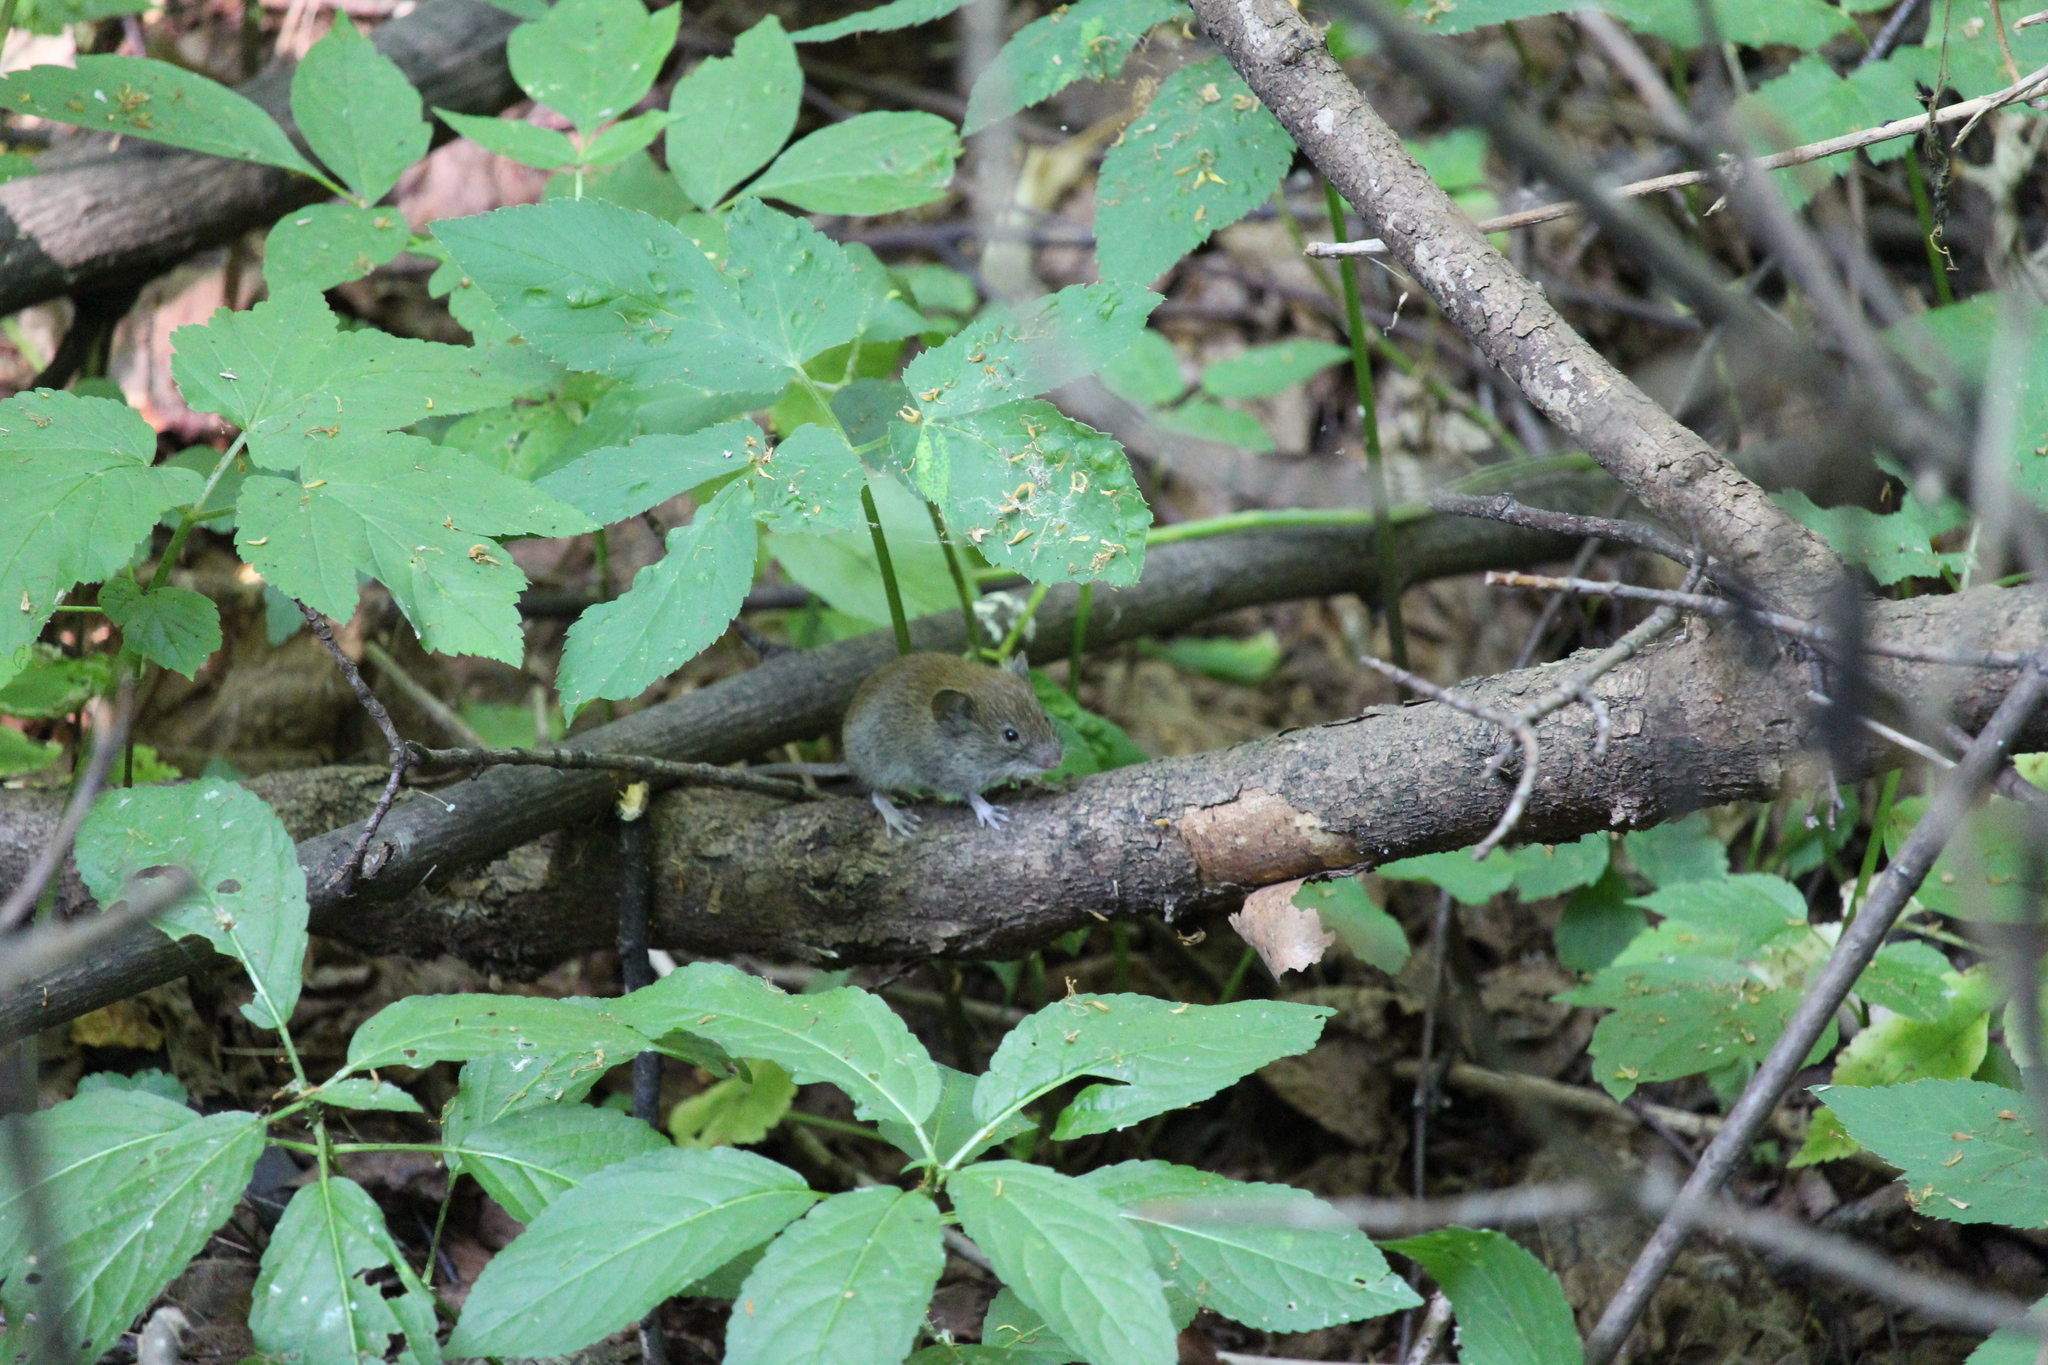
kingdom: Animalia
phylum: Chordata
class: Mammalia
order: Rodentia
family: Cricetidae
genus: Myodes
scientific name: Myodes glareolus
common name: Bank vole
